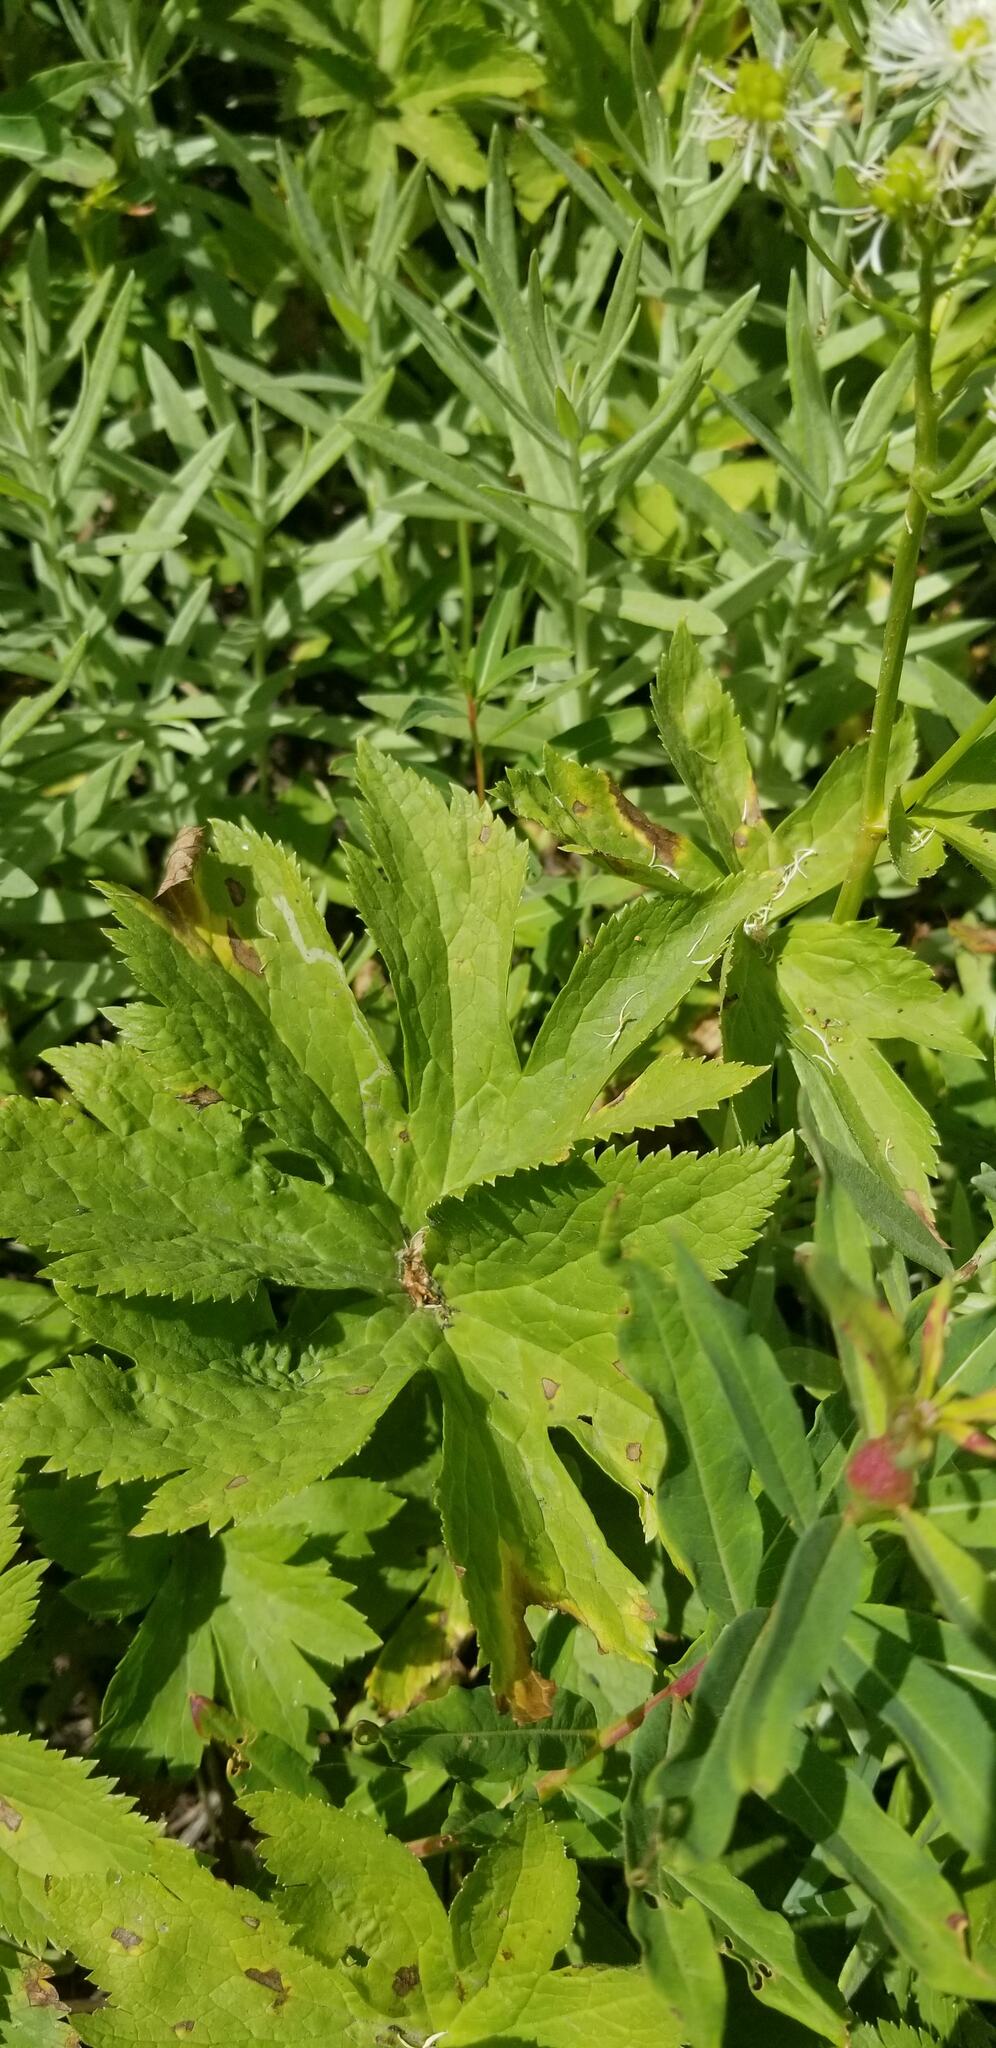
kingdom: Plantae
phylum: Tracheophyta
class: Magnoliopsida
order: Ranunculales
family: Ranunculaceae
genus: Trautvetteria
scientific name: Trautvetteria carolinensis
